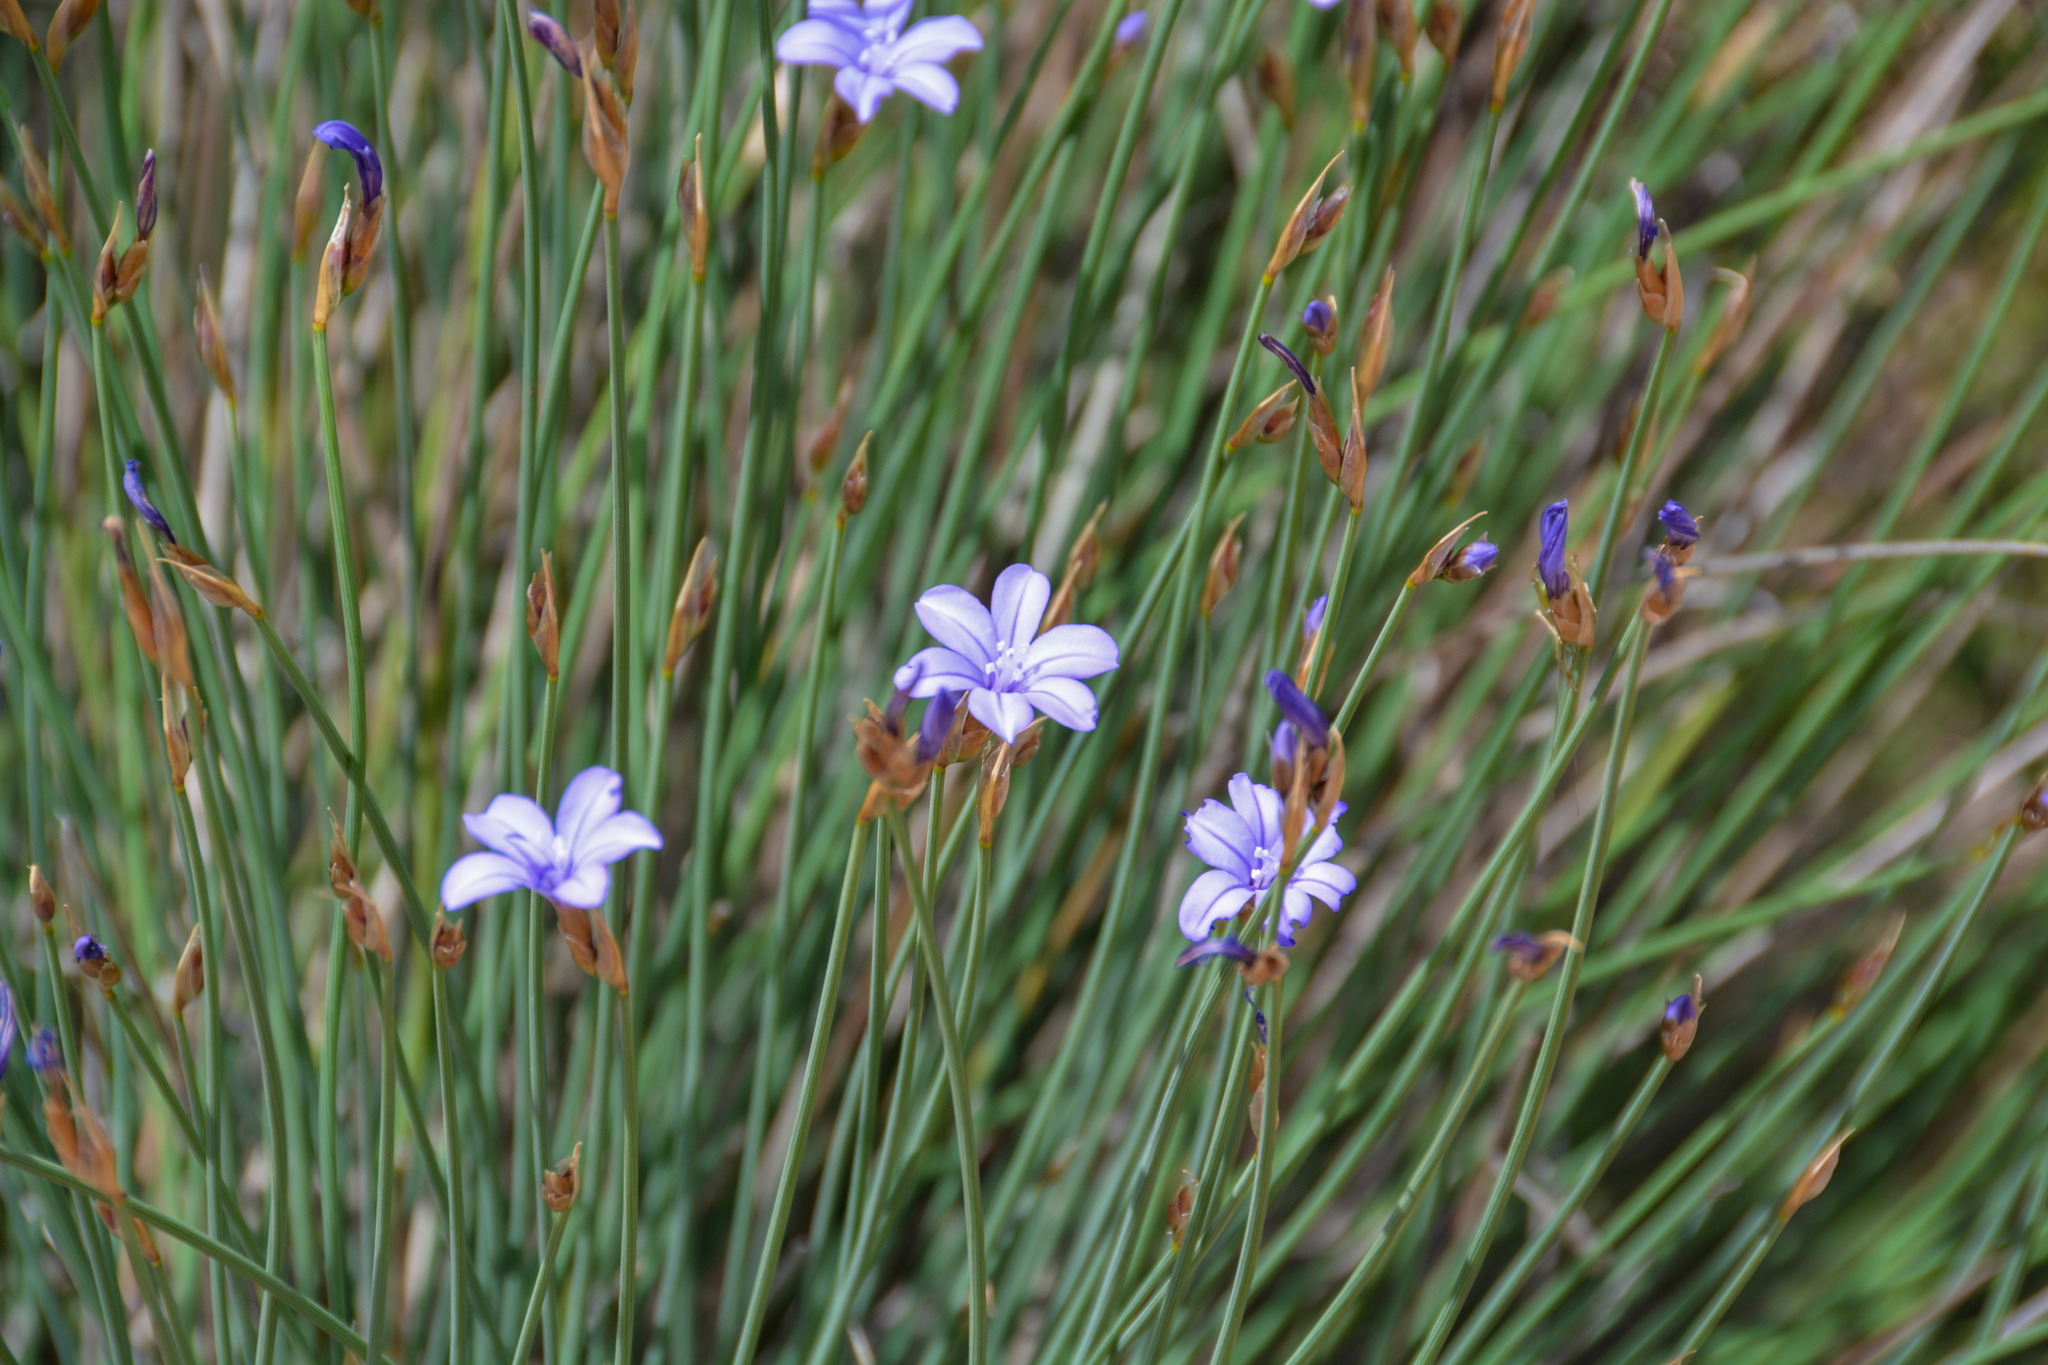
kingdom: Plantae
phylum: Tracheophyta
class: Liliopsida
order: Asparagales
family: Asparagaceae
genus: Aphyllanthes
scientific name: Aphyllanthes monspeliensis
